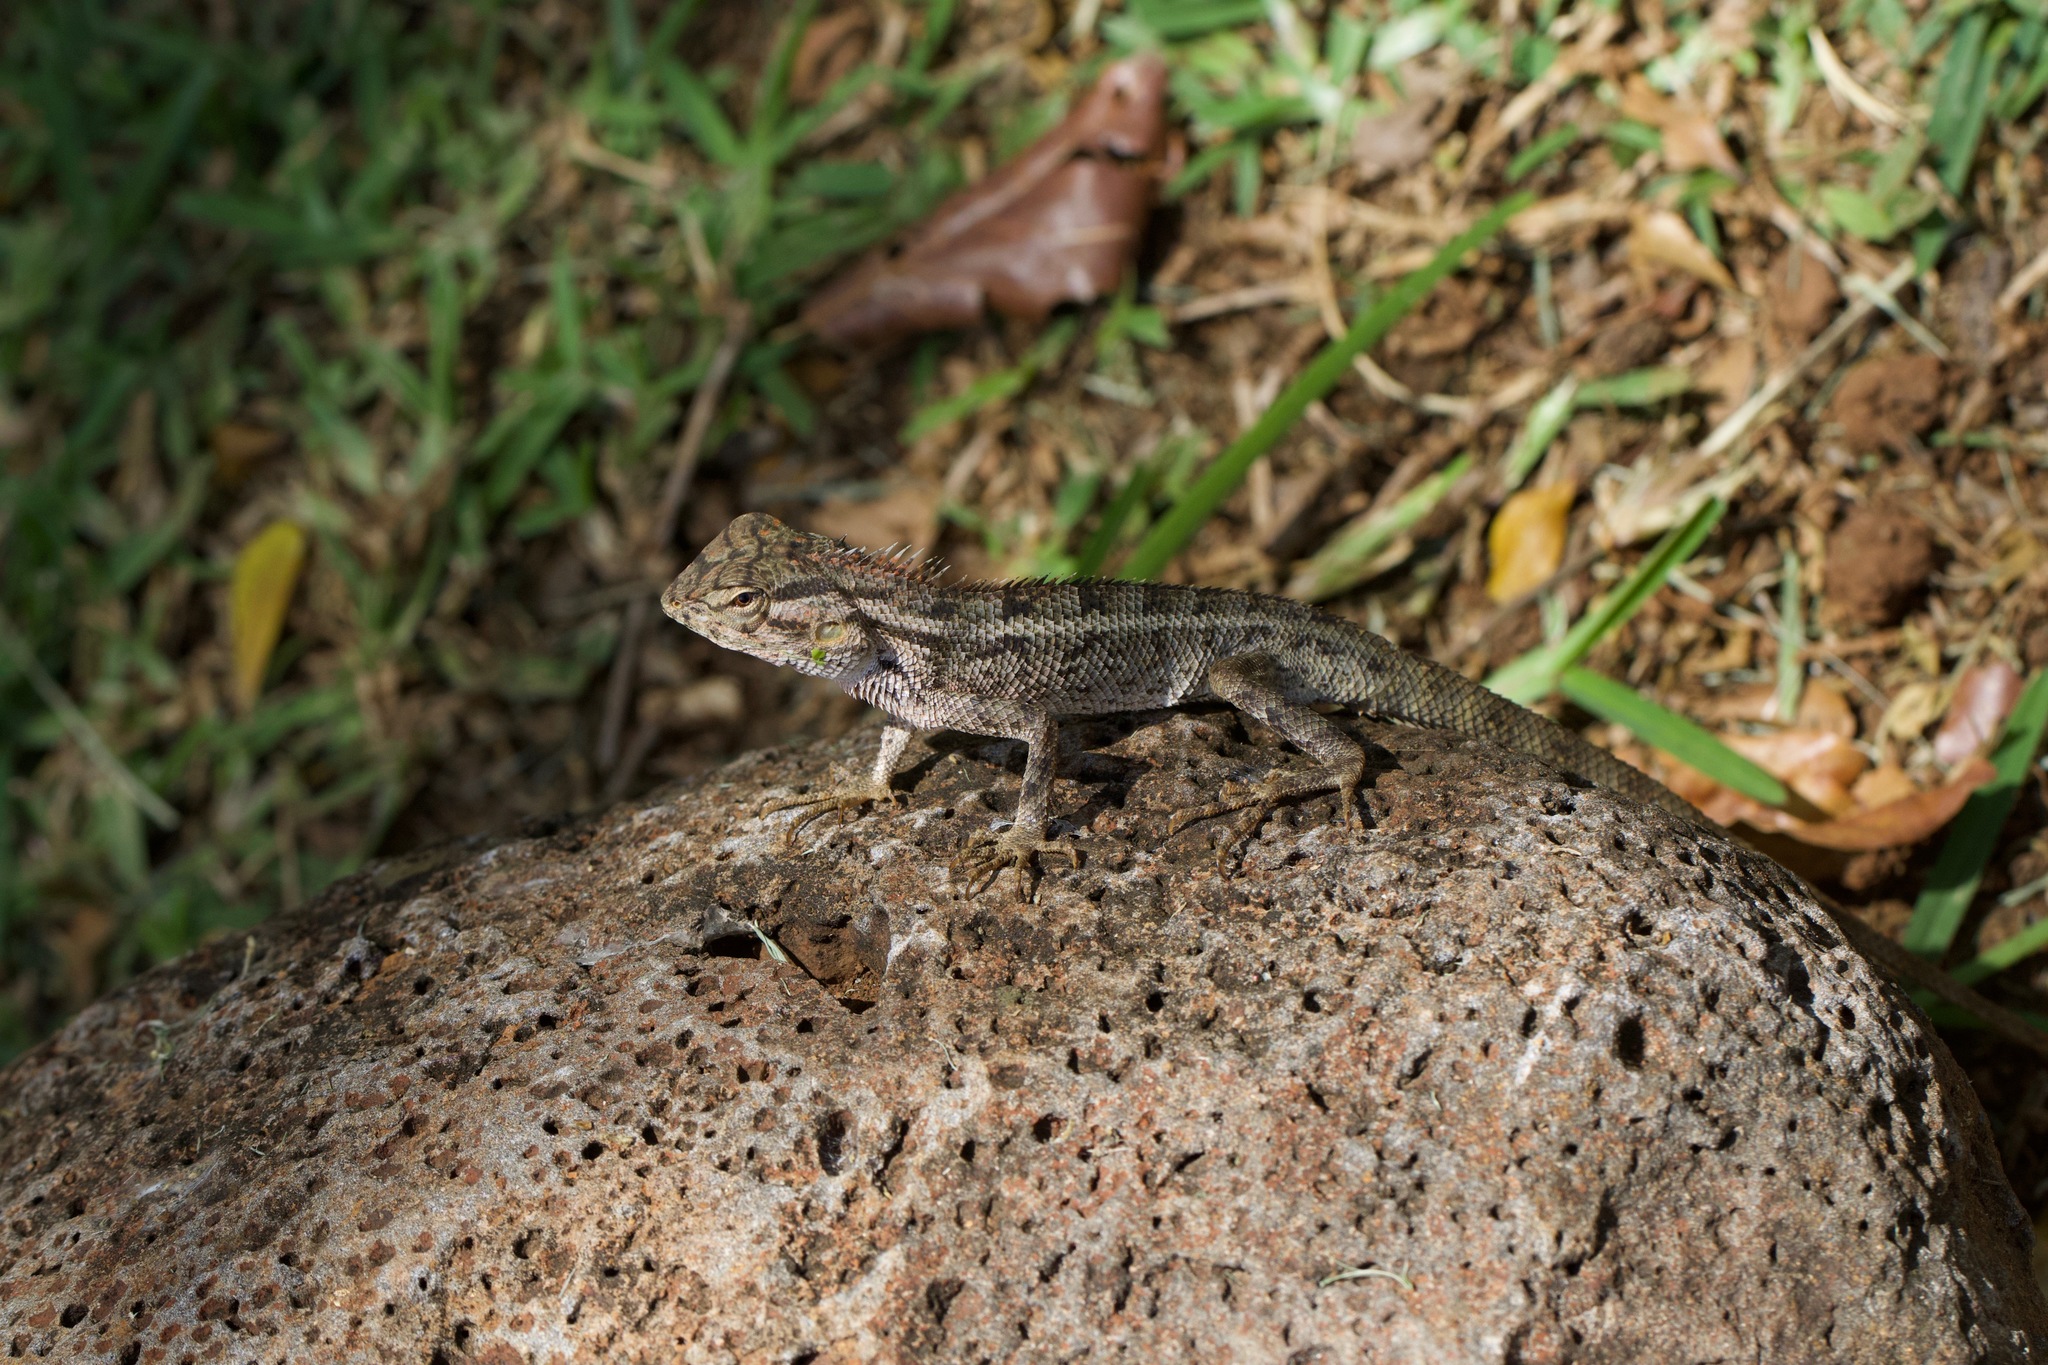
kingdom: Animalia
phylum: Chordata
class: Squamata
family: Agamidae
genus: Calotes
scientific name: Calotes versicolor
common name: Oriental garden lizard
